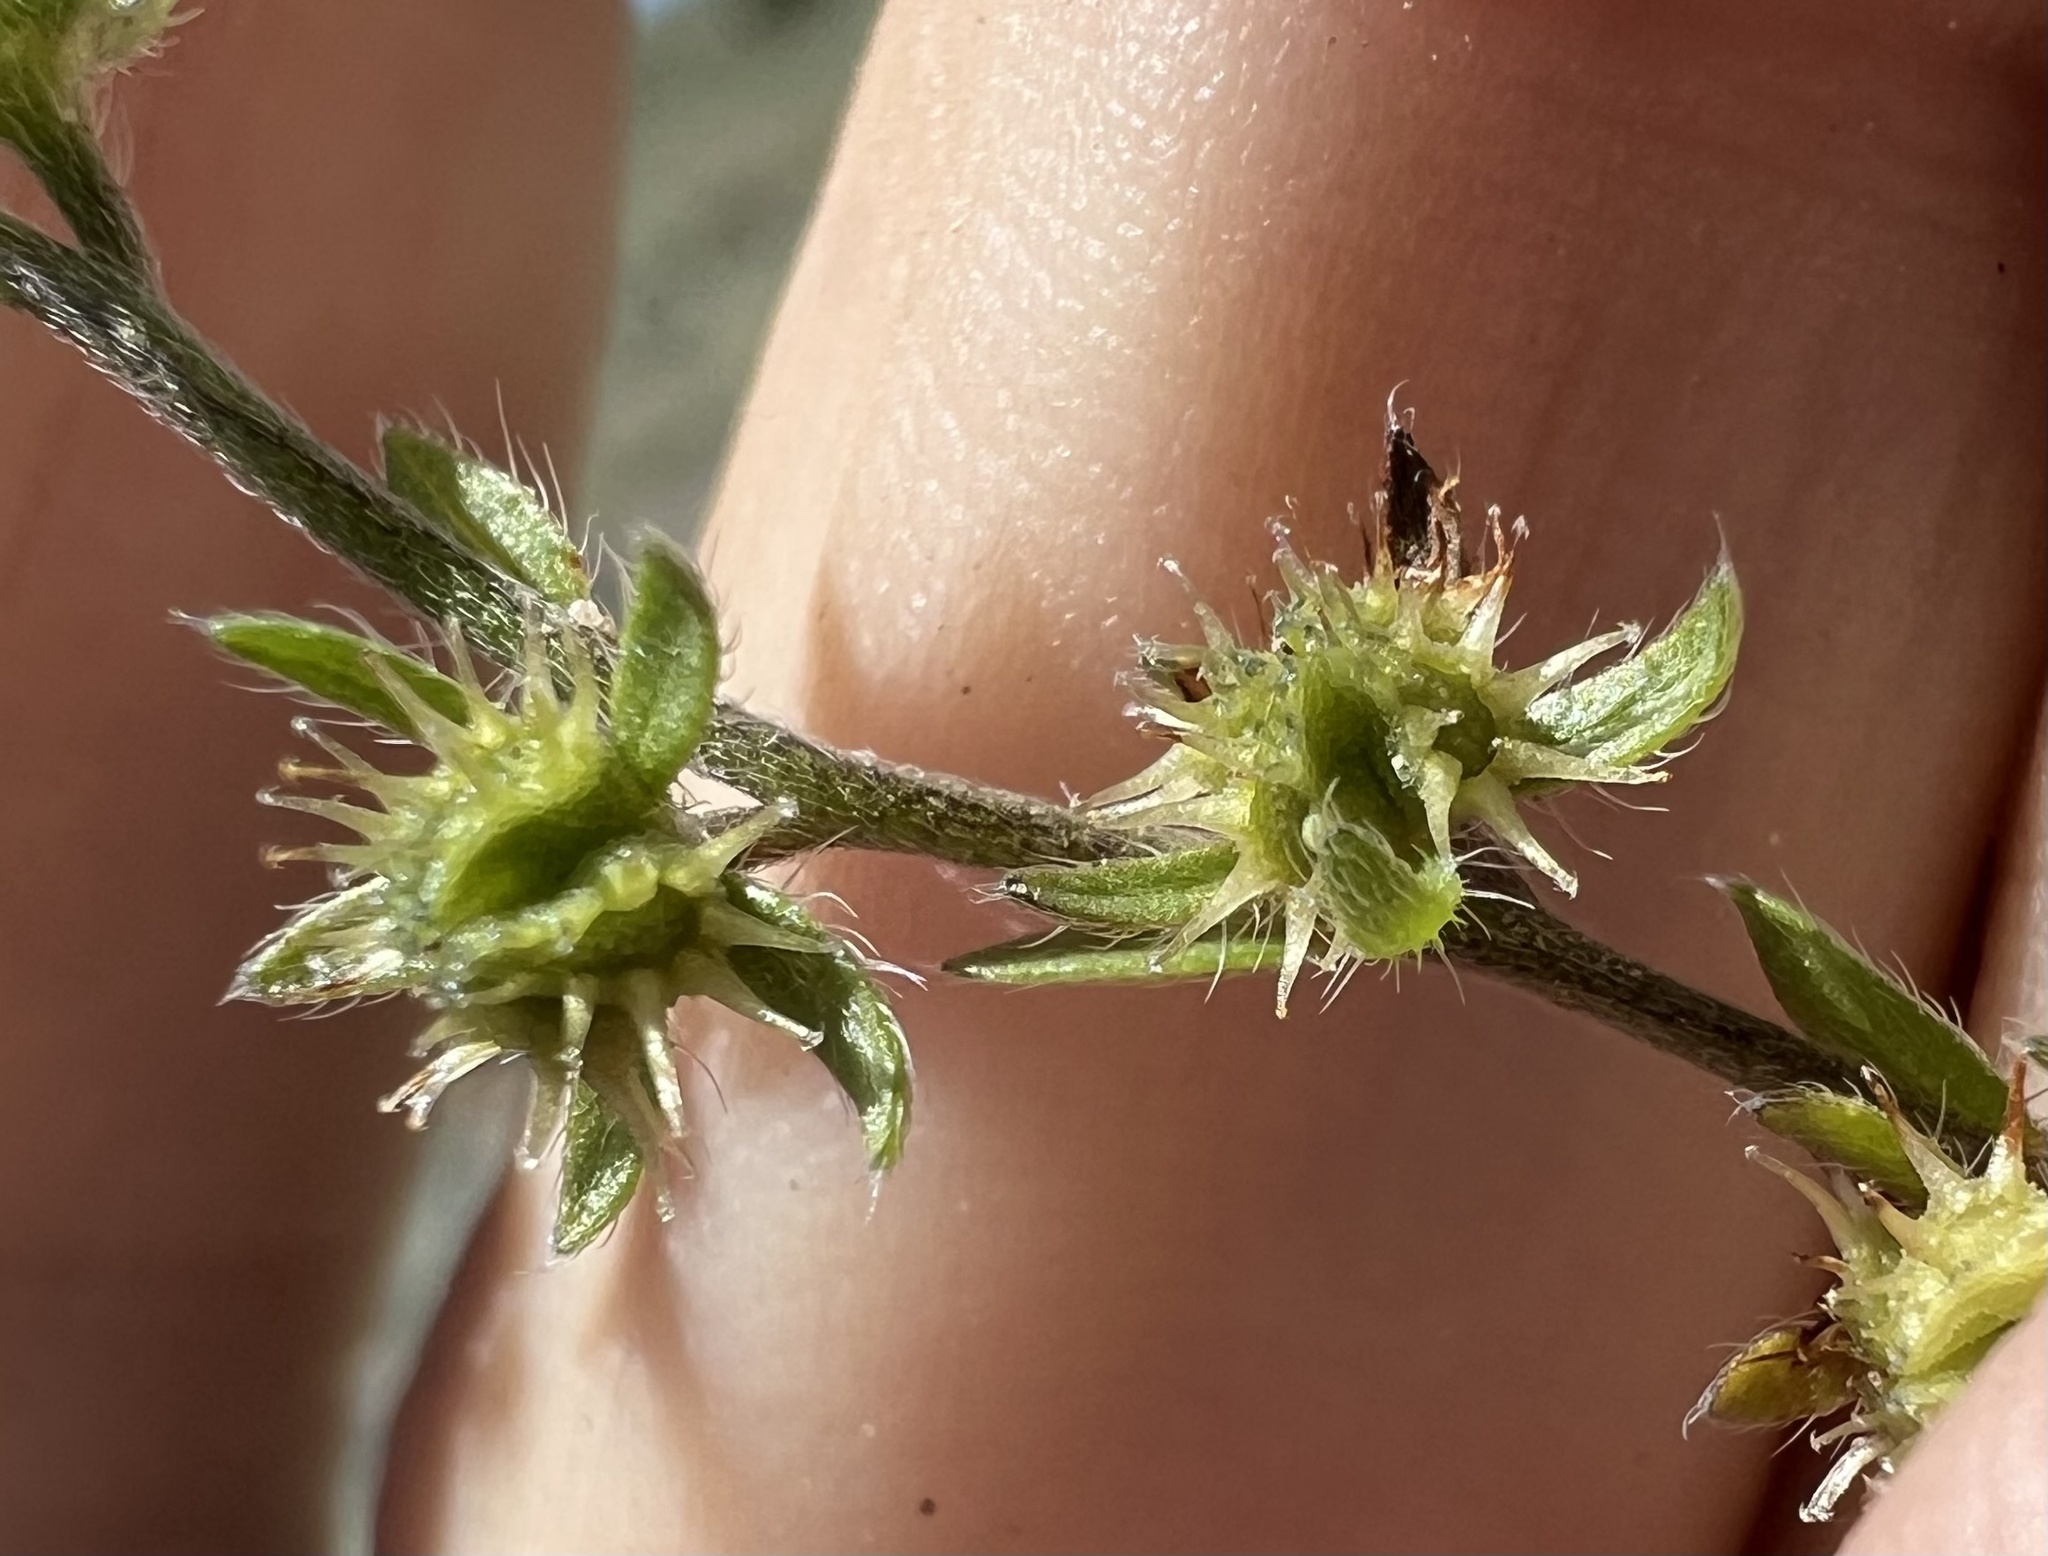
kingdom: Plantae
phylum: Tracheophyta
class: Magnoliopsida
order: Boraginales
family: Boraginaceae
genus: Lappula
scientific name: Lappula occidentalis
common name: Western stickseed
